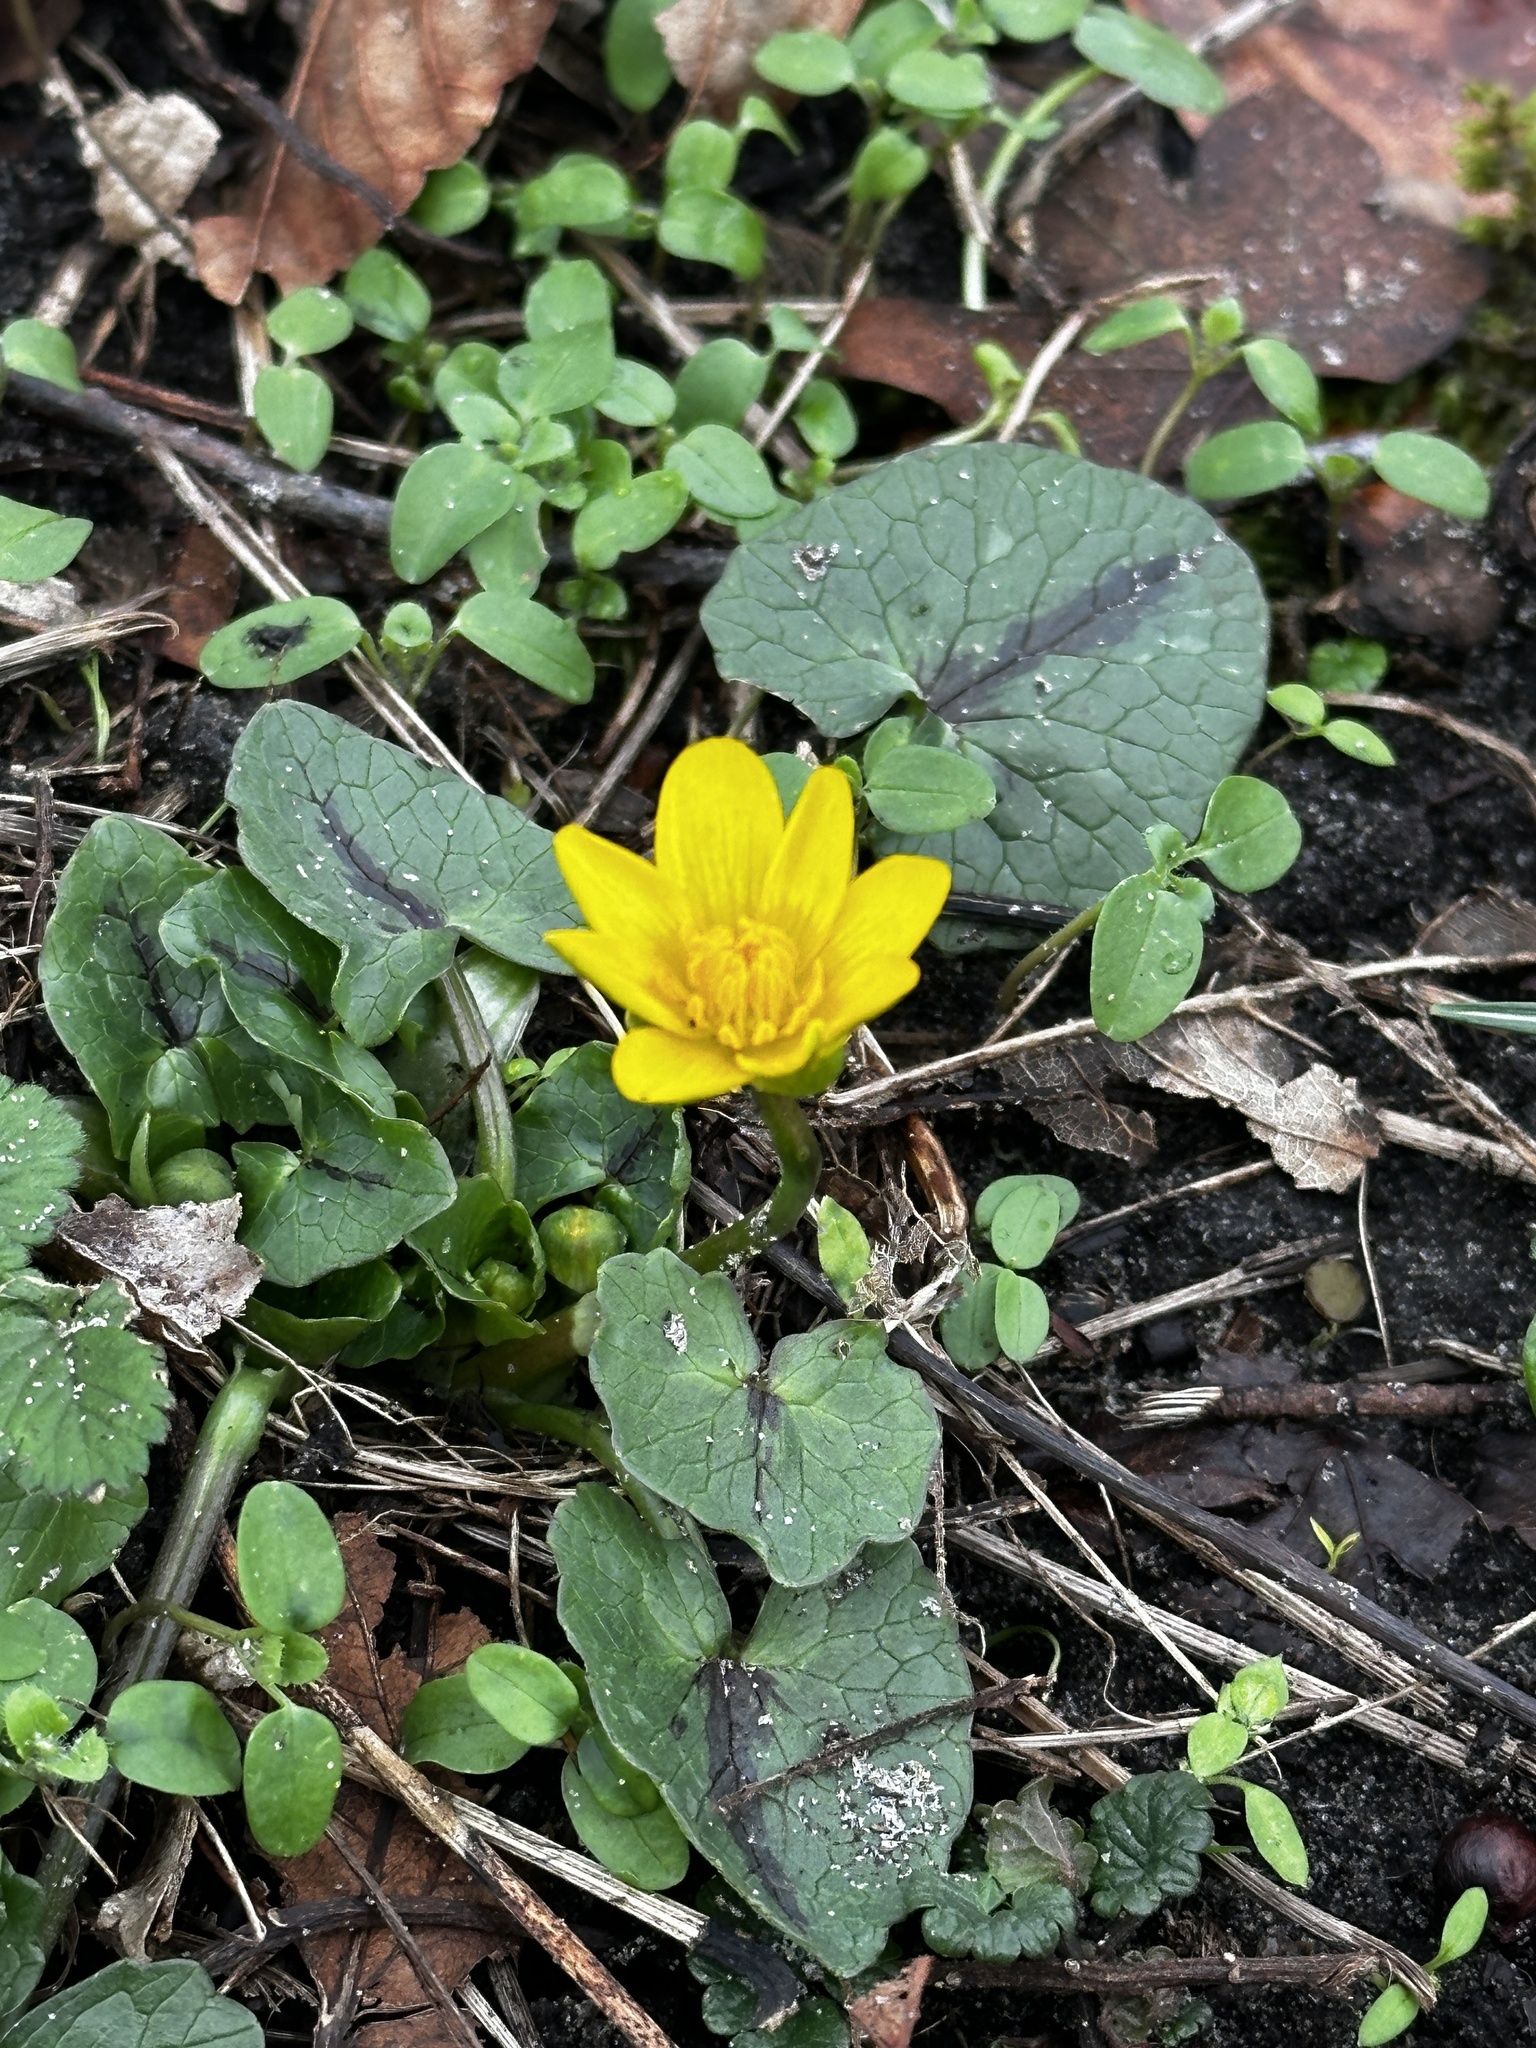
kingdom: Plantae
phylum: Tracheophyta
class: Magnoliopsida
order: Ranunculales
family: Ranunculaceae
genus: Ficaria
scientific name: Ficaria verna
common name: Lesser celandine
